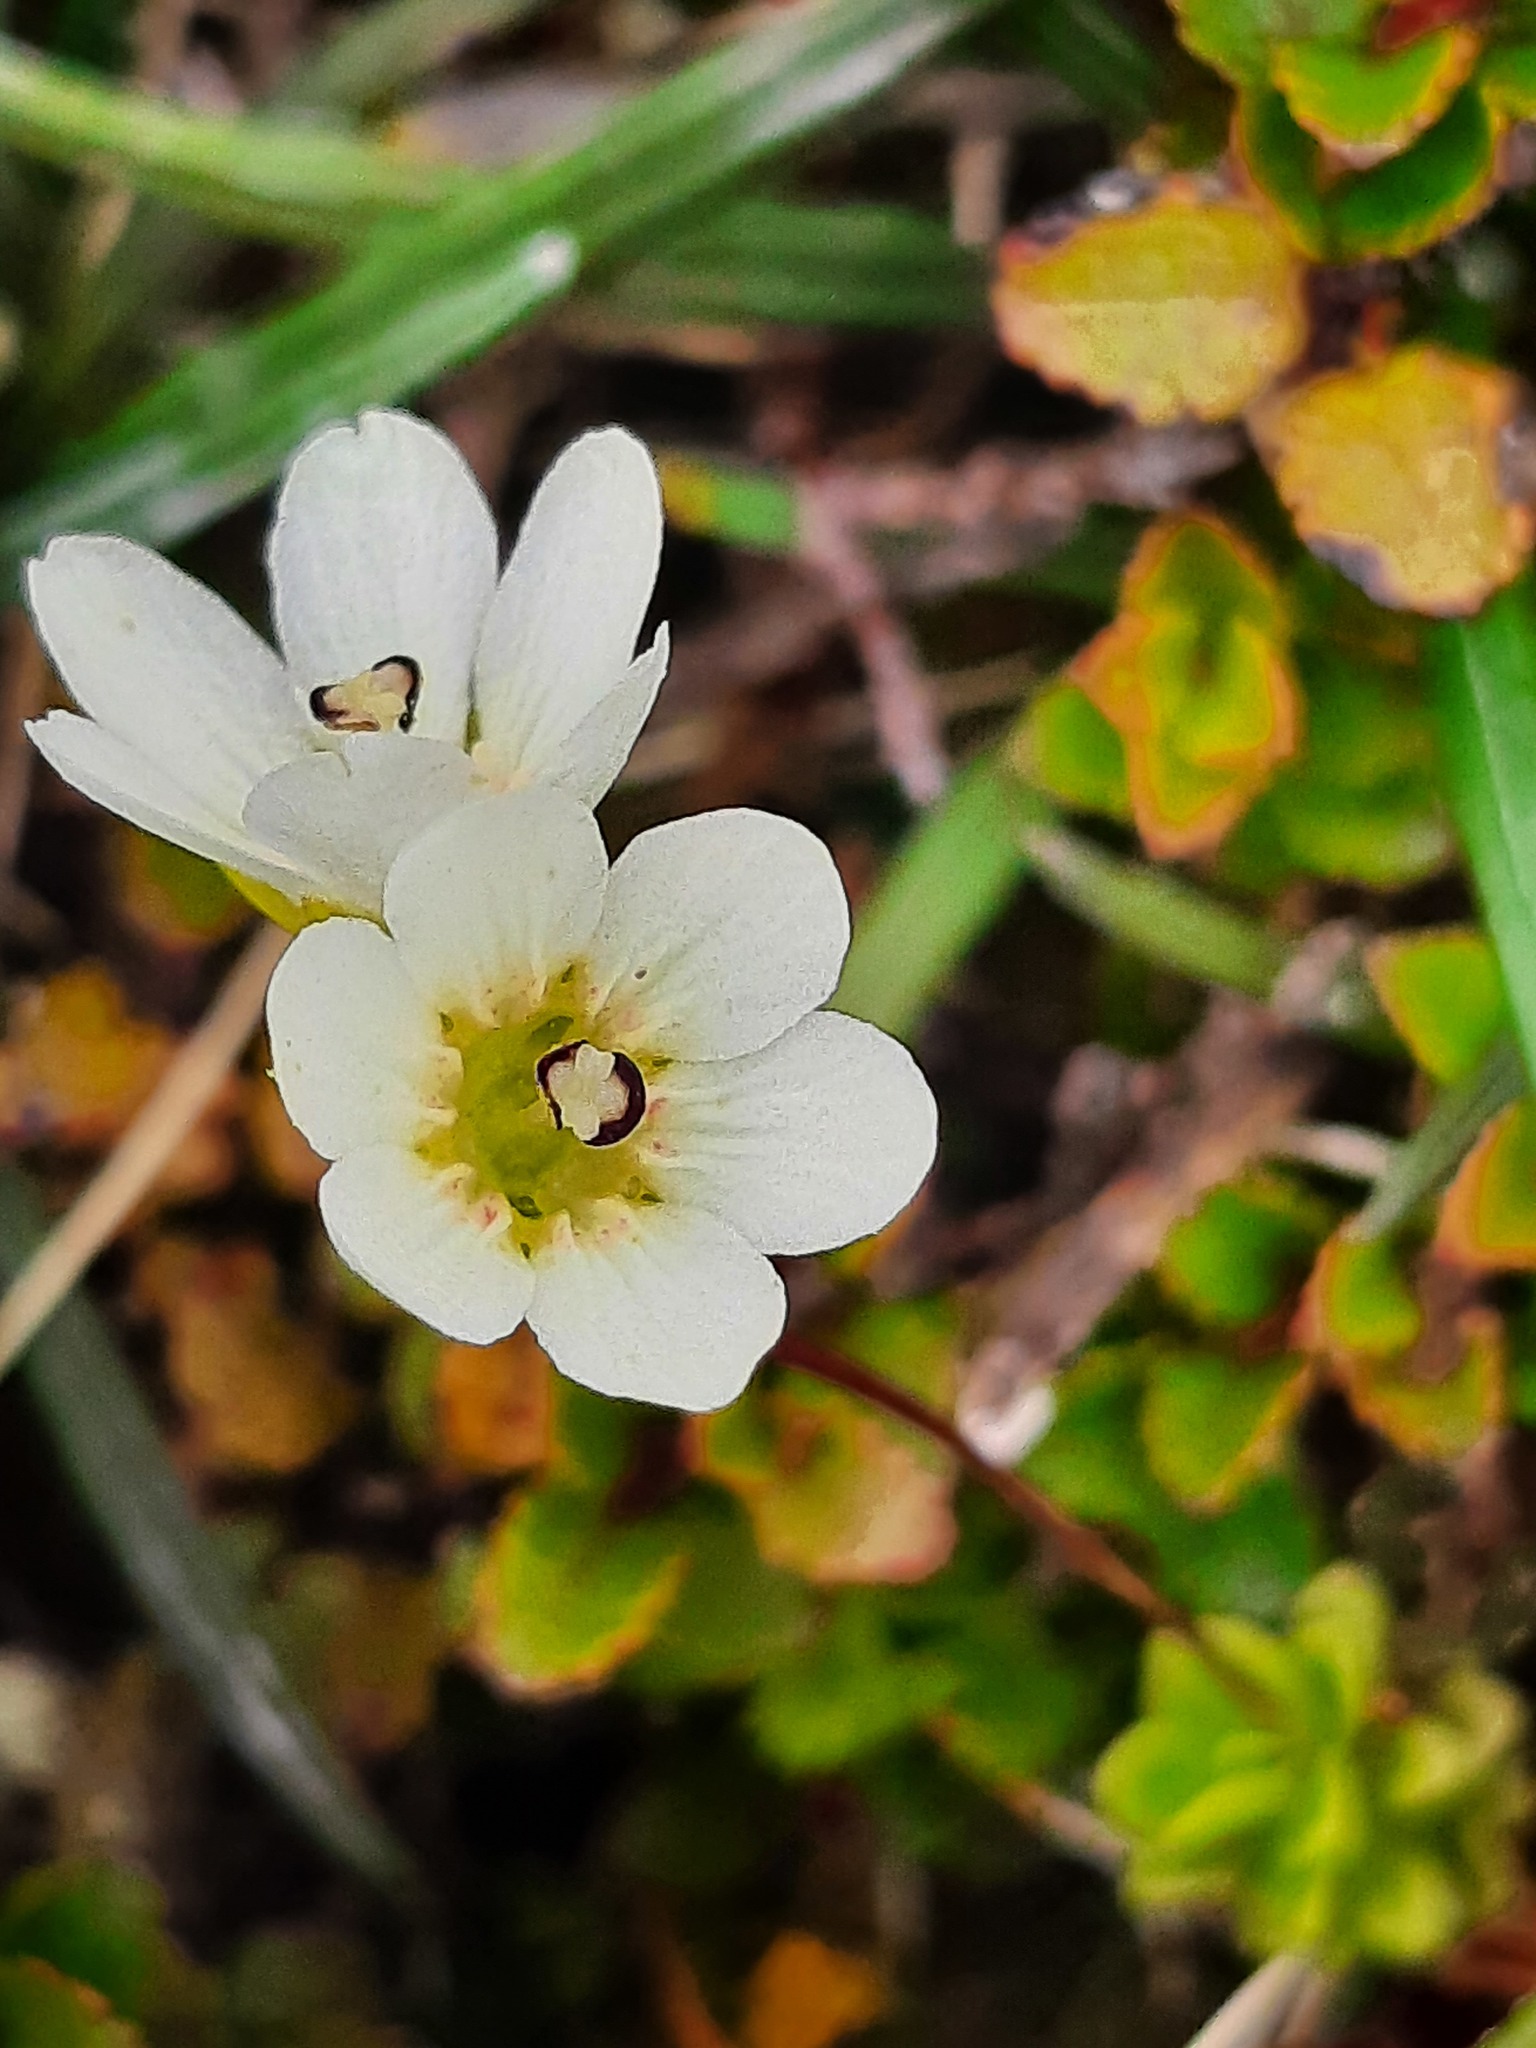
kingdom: Plantae
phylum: Tracheophyta
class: Magnoliopsida
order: Asterales
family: Stylidiaceae
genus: Forstera
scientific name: Forstera tenella
